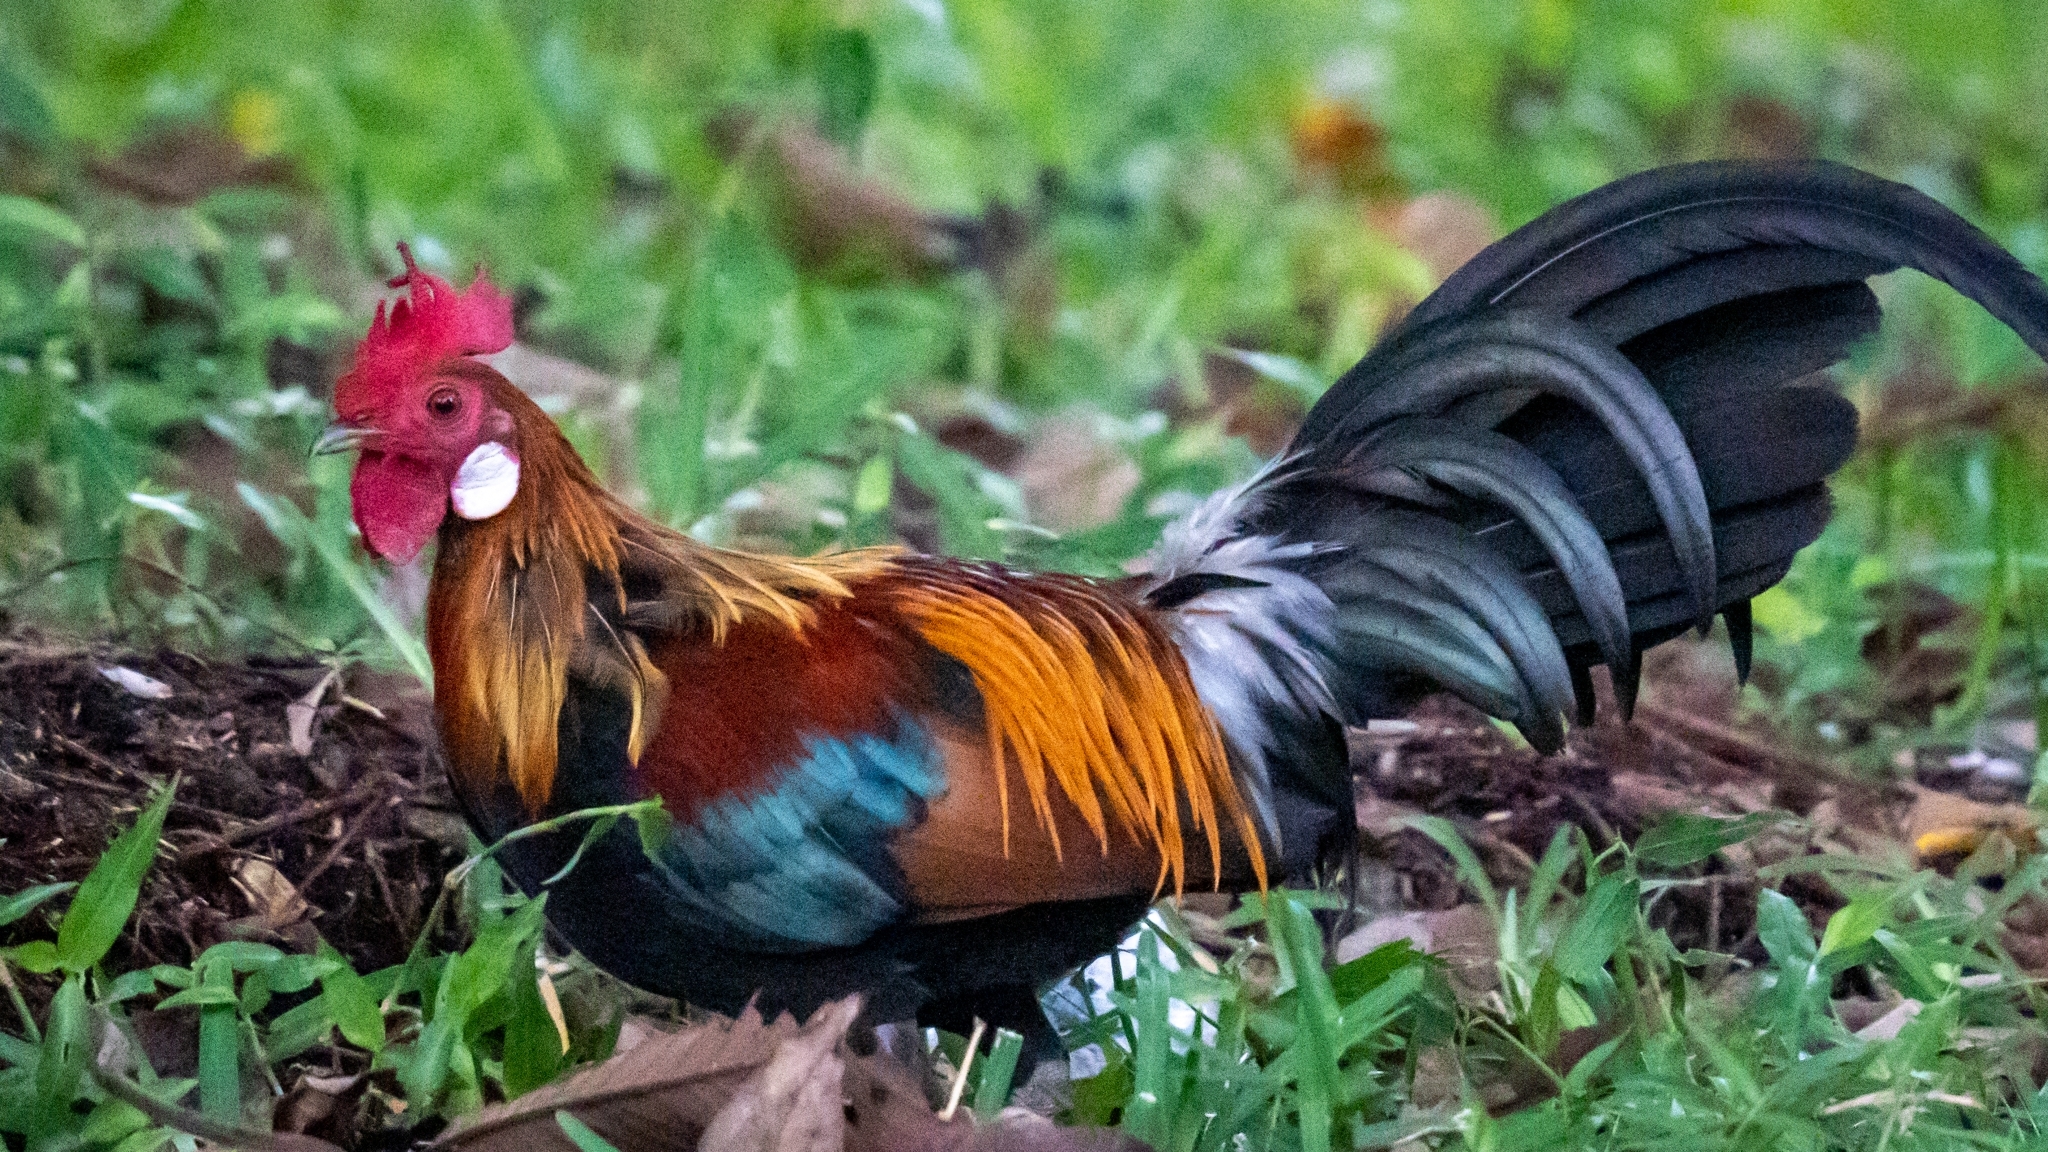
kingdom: Animalia
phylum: Chordata
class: Aves
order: Galliformes
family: Phasianidae
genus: Gallus
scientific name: Gallus gallus
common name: Red junglefowl
